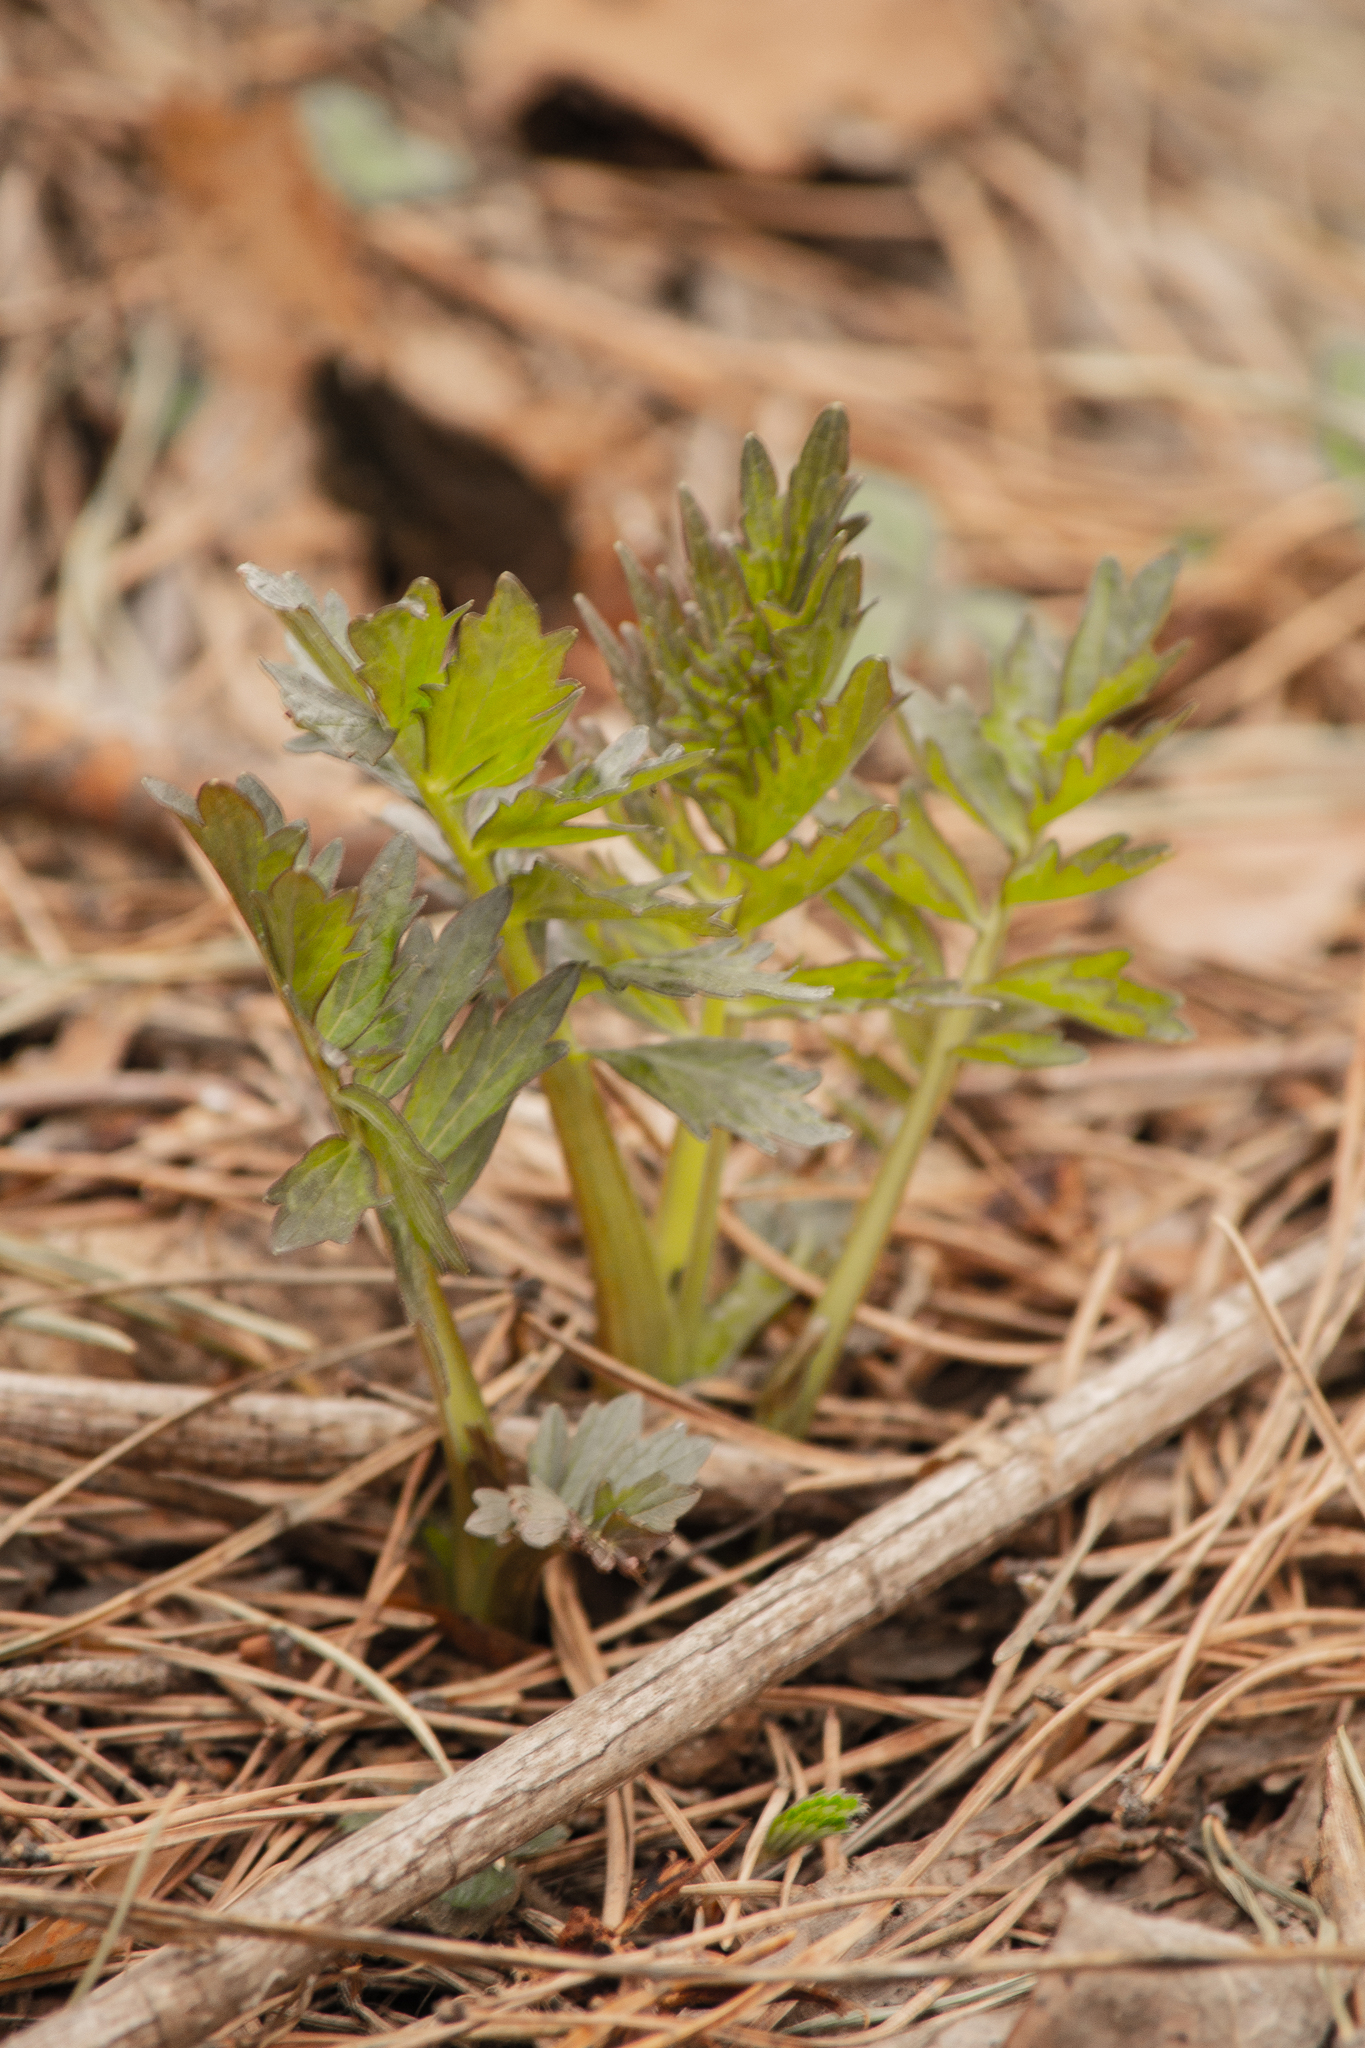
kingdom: Plantae
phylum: Tracheophyta
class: Magnoliopsida
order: Dipsacales
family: Caprifoliaceae
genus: Valeriana
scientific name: Valeriana wolgensis
